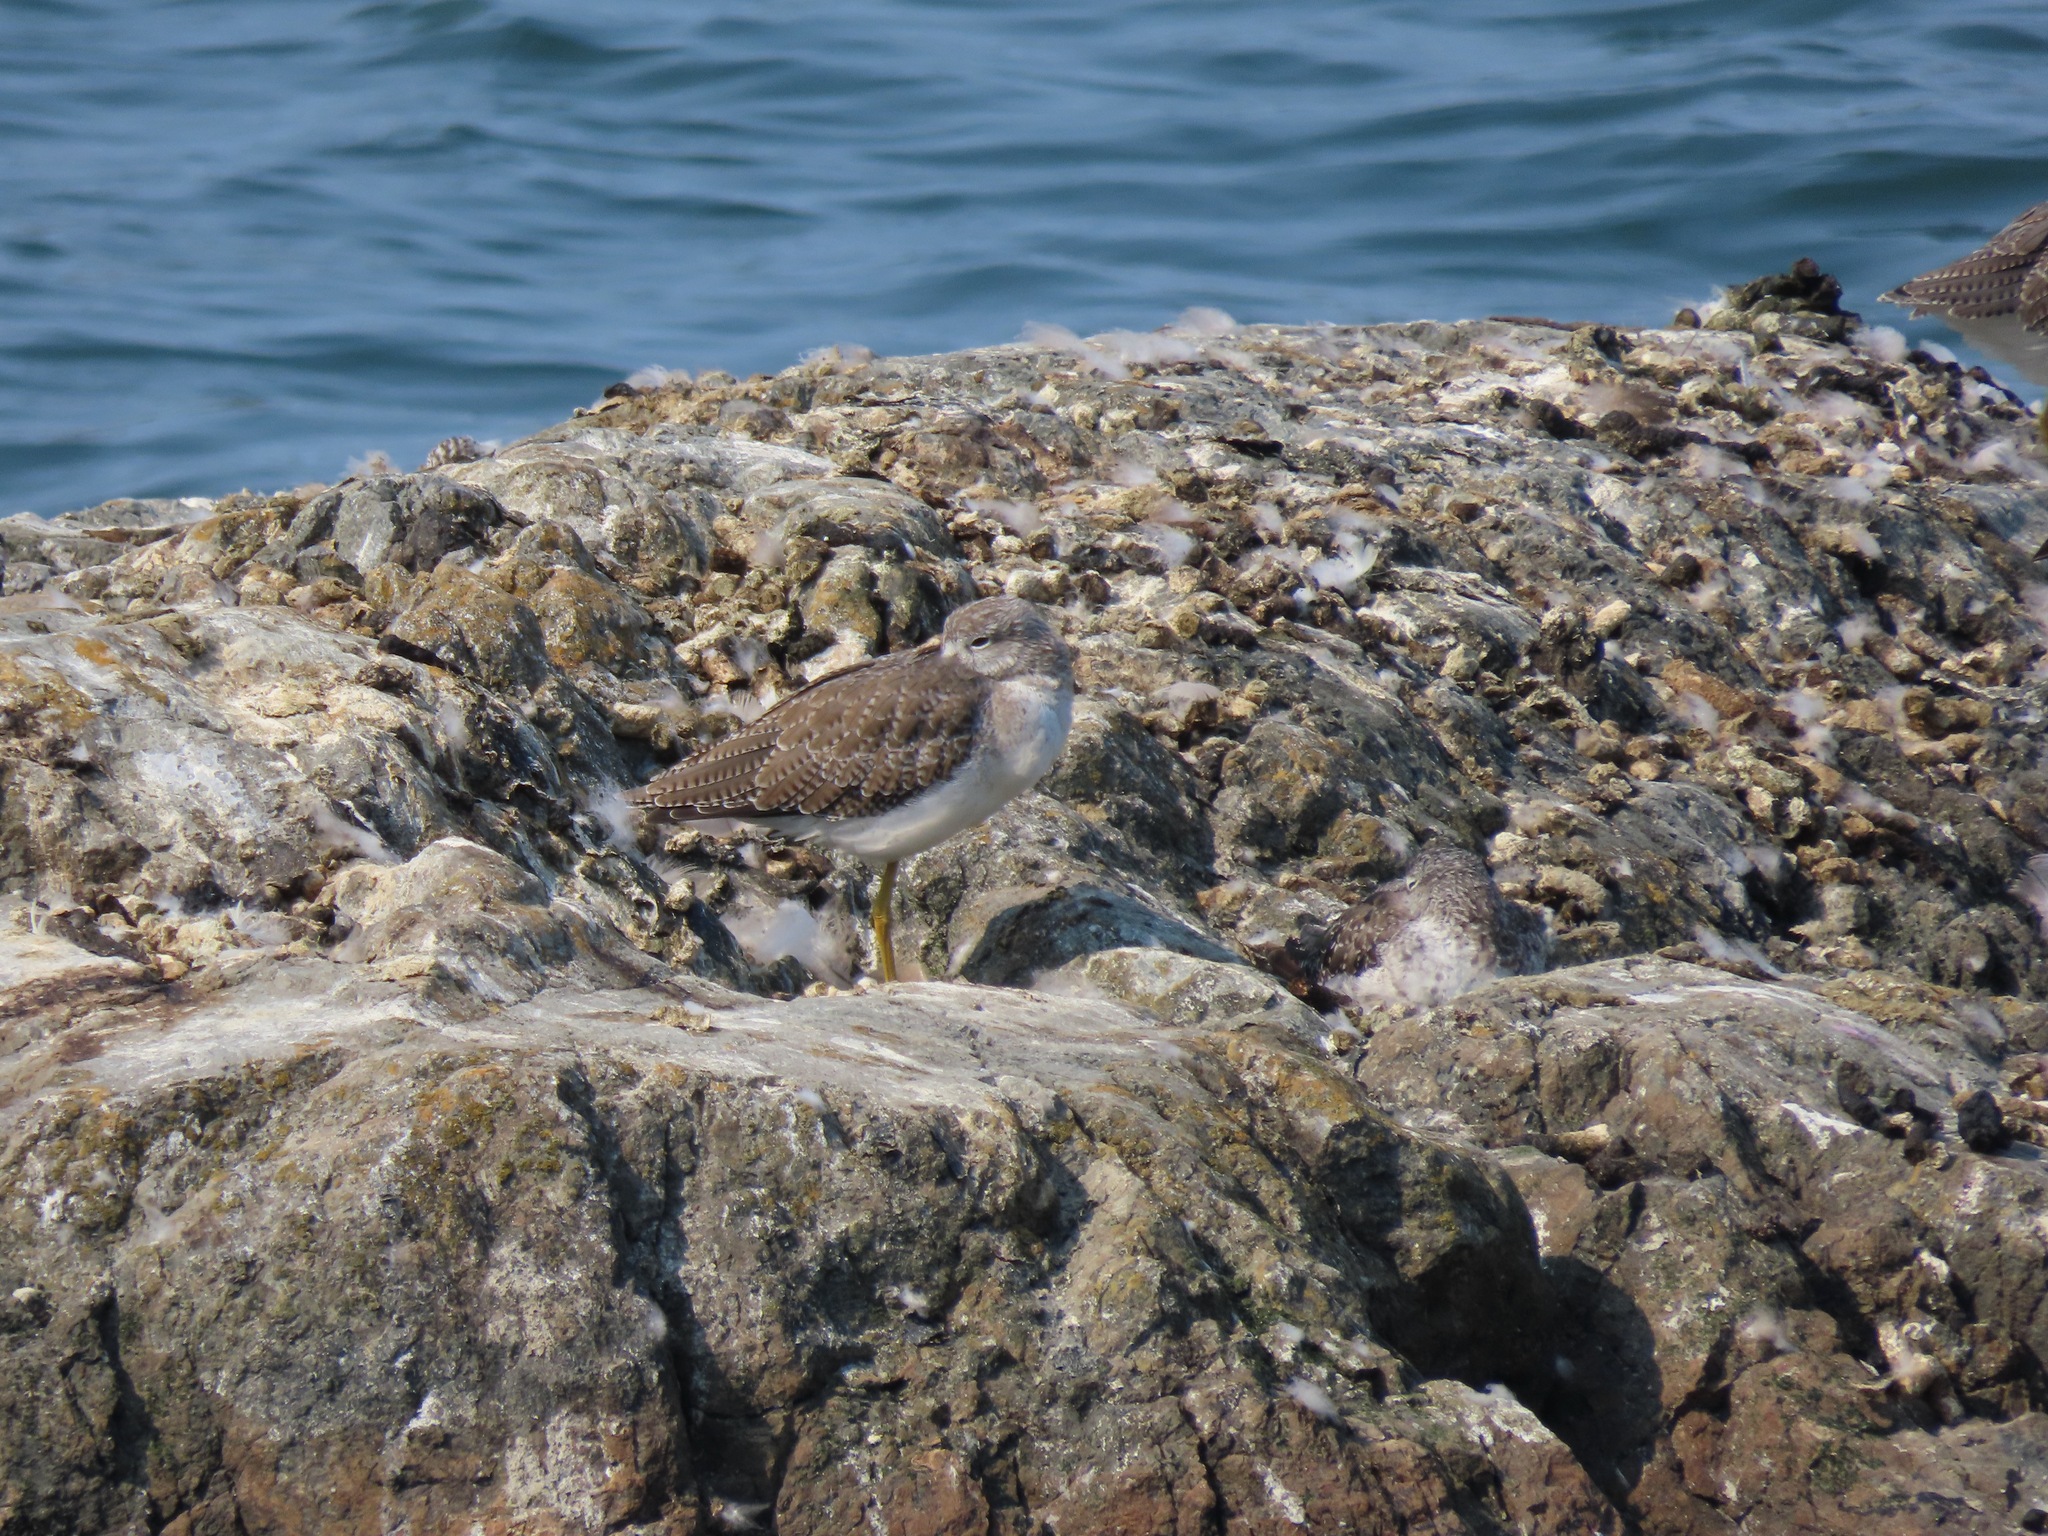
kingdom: Animalia
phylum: Chordata
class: Aves
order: Charadriiformes
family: Scolopacidae
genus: Tringa
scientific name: Tringa melanoleuca
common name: Greater yellowlegs
